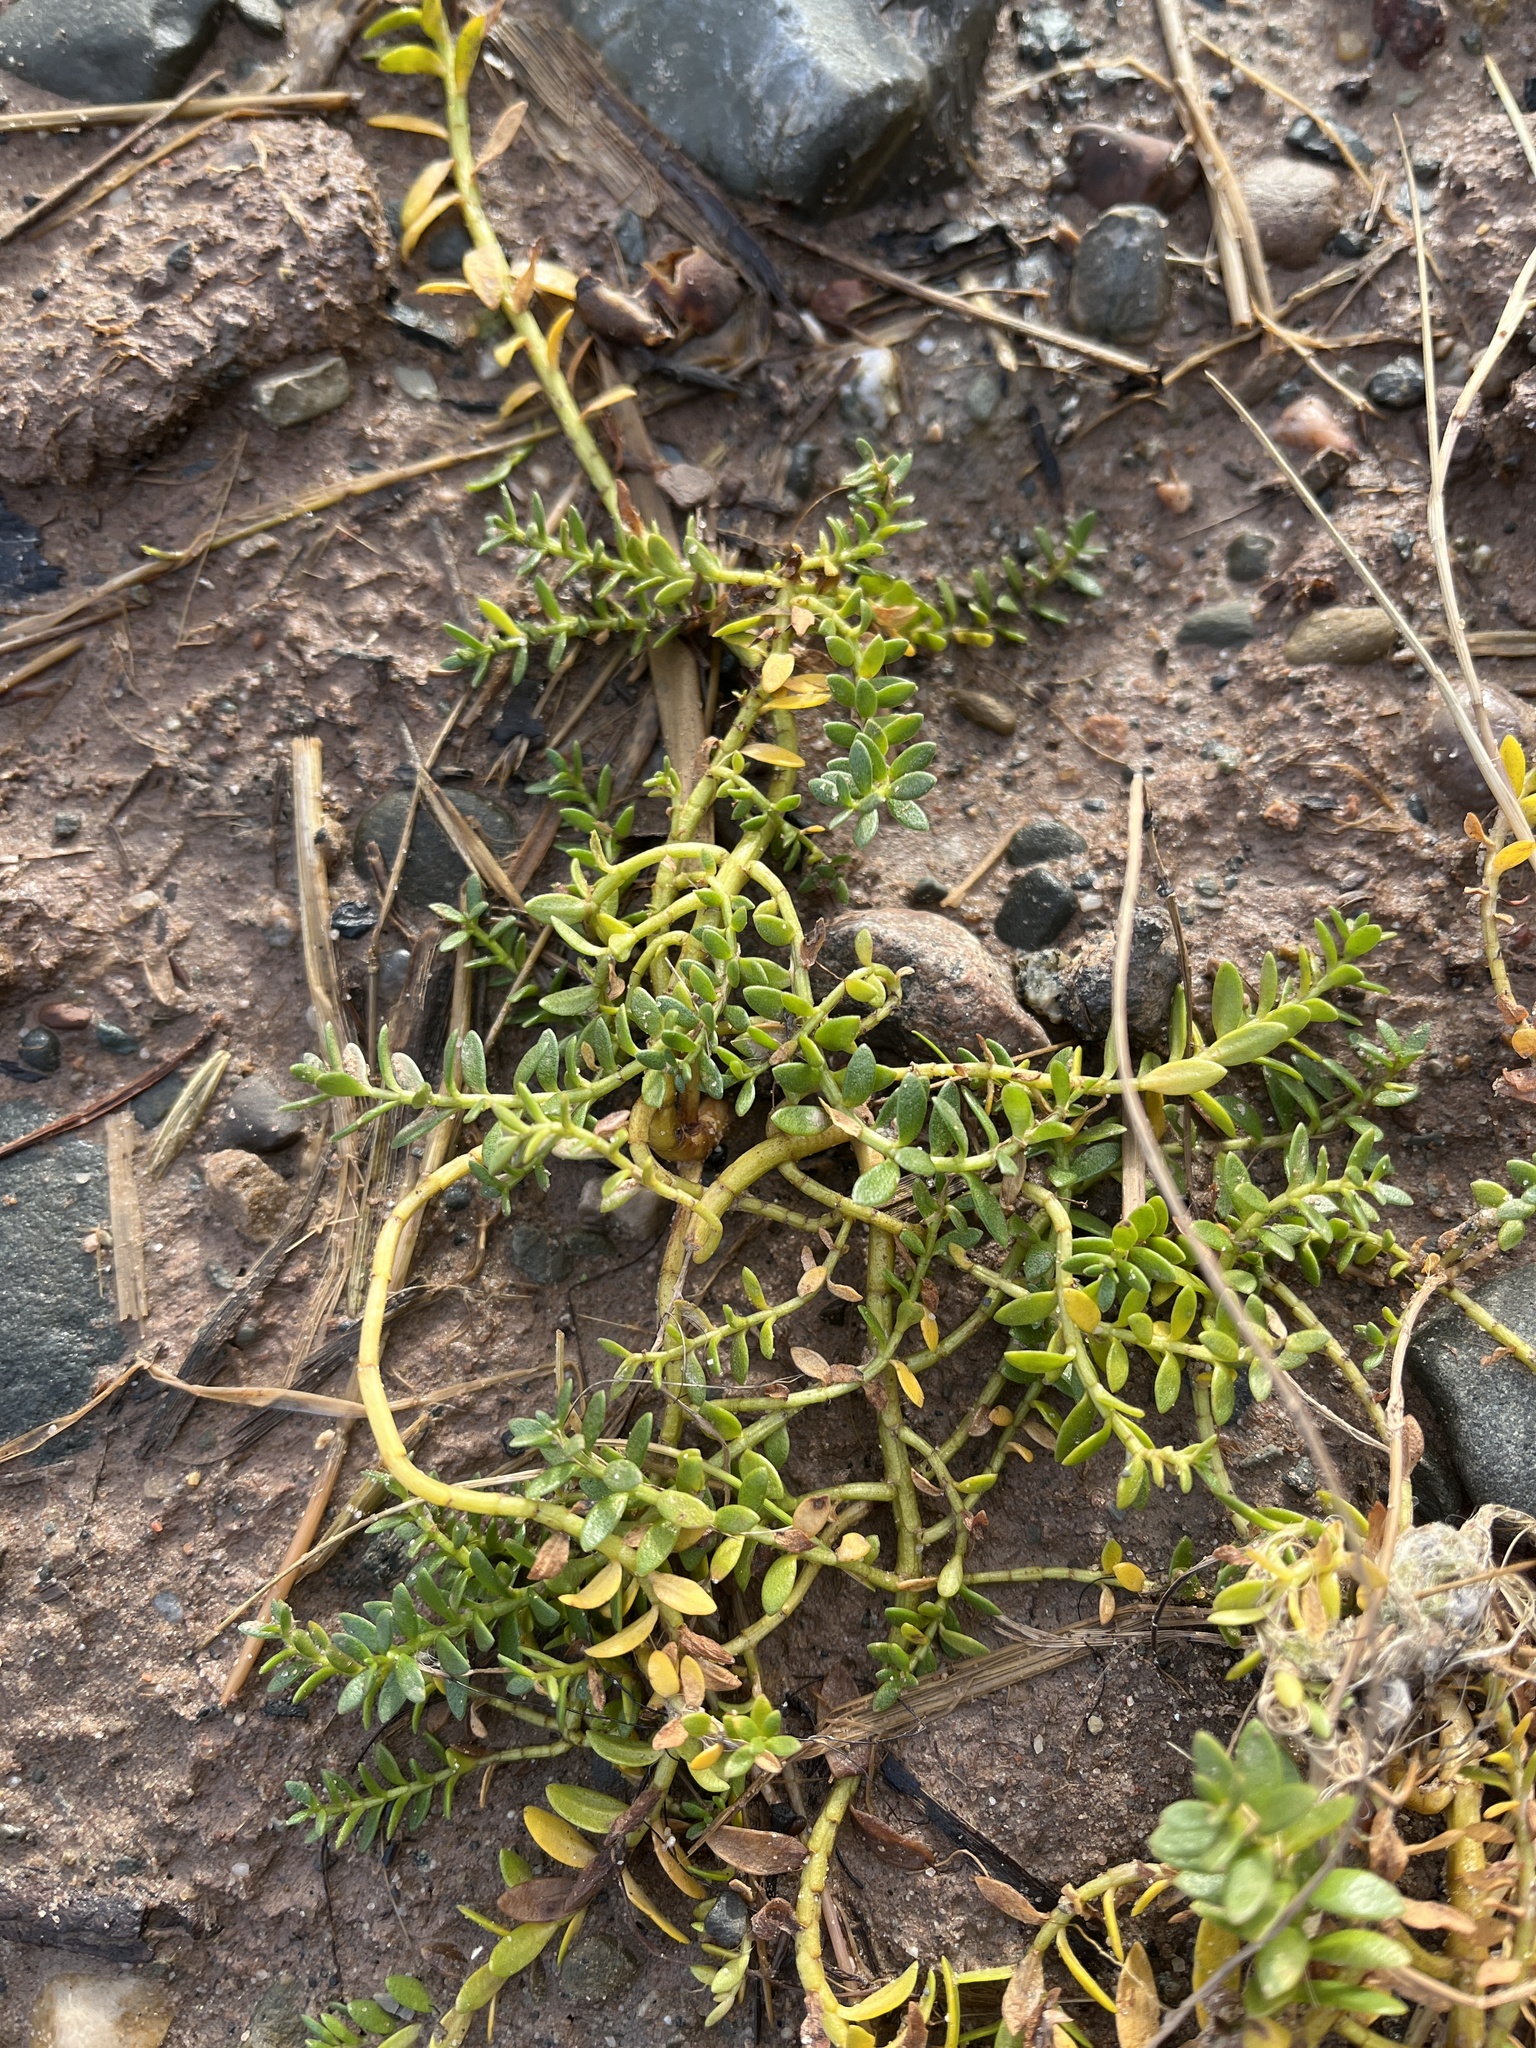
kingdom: Plantae
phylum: Tracheophyta
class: Magnoliopsida
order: Ericales
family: Primulaceae
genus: Lysimachia
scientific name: Lysimachia maritima
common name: Sea milkwort
